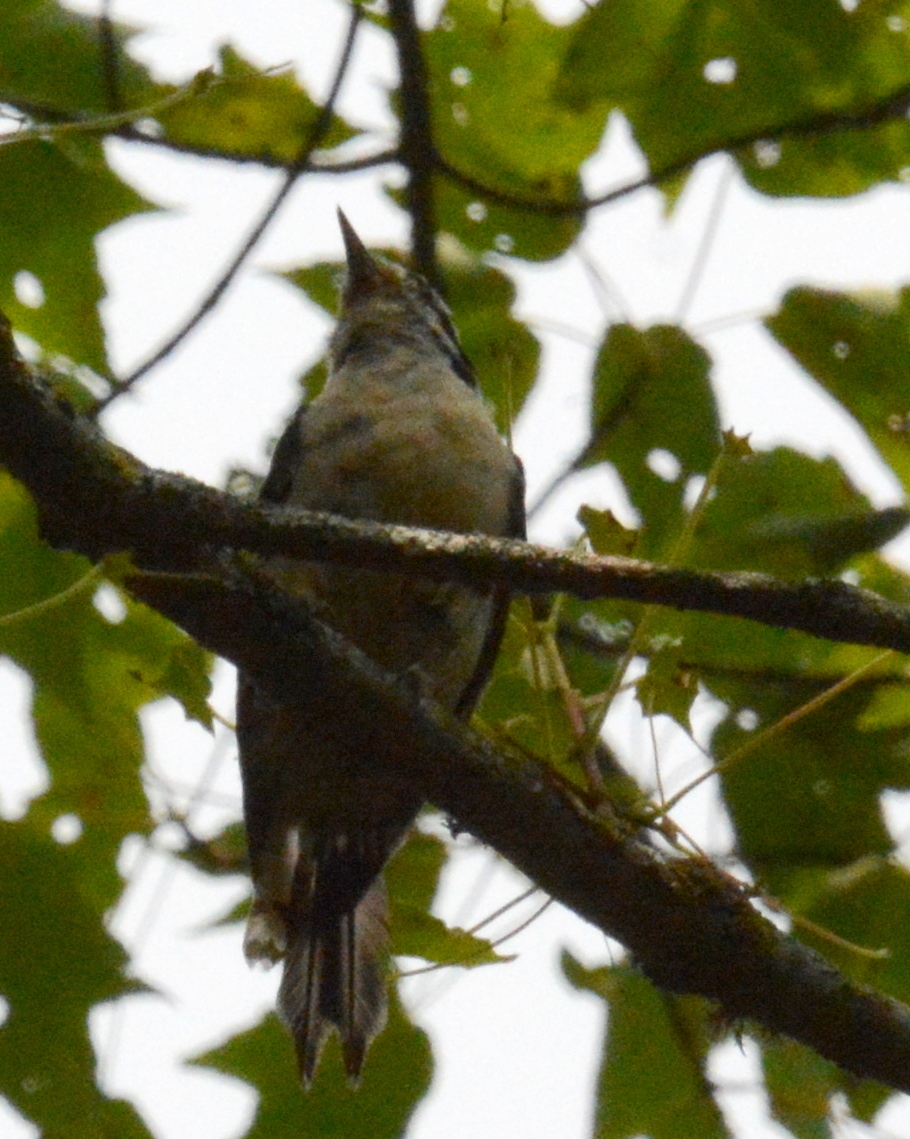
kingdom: Animalia
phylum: Chordata
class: Aves
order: Piciformes
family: Picidae
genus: Dryobates
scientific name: Dryobates pubescens
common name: Downy woodpecker
